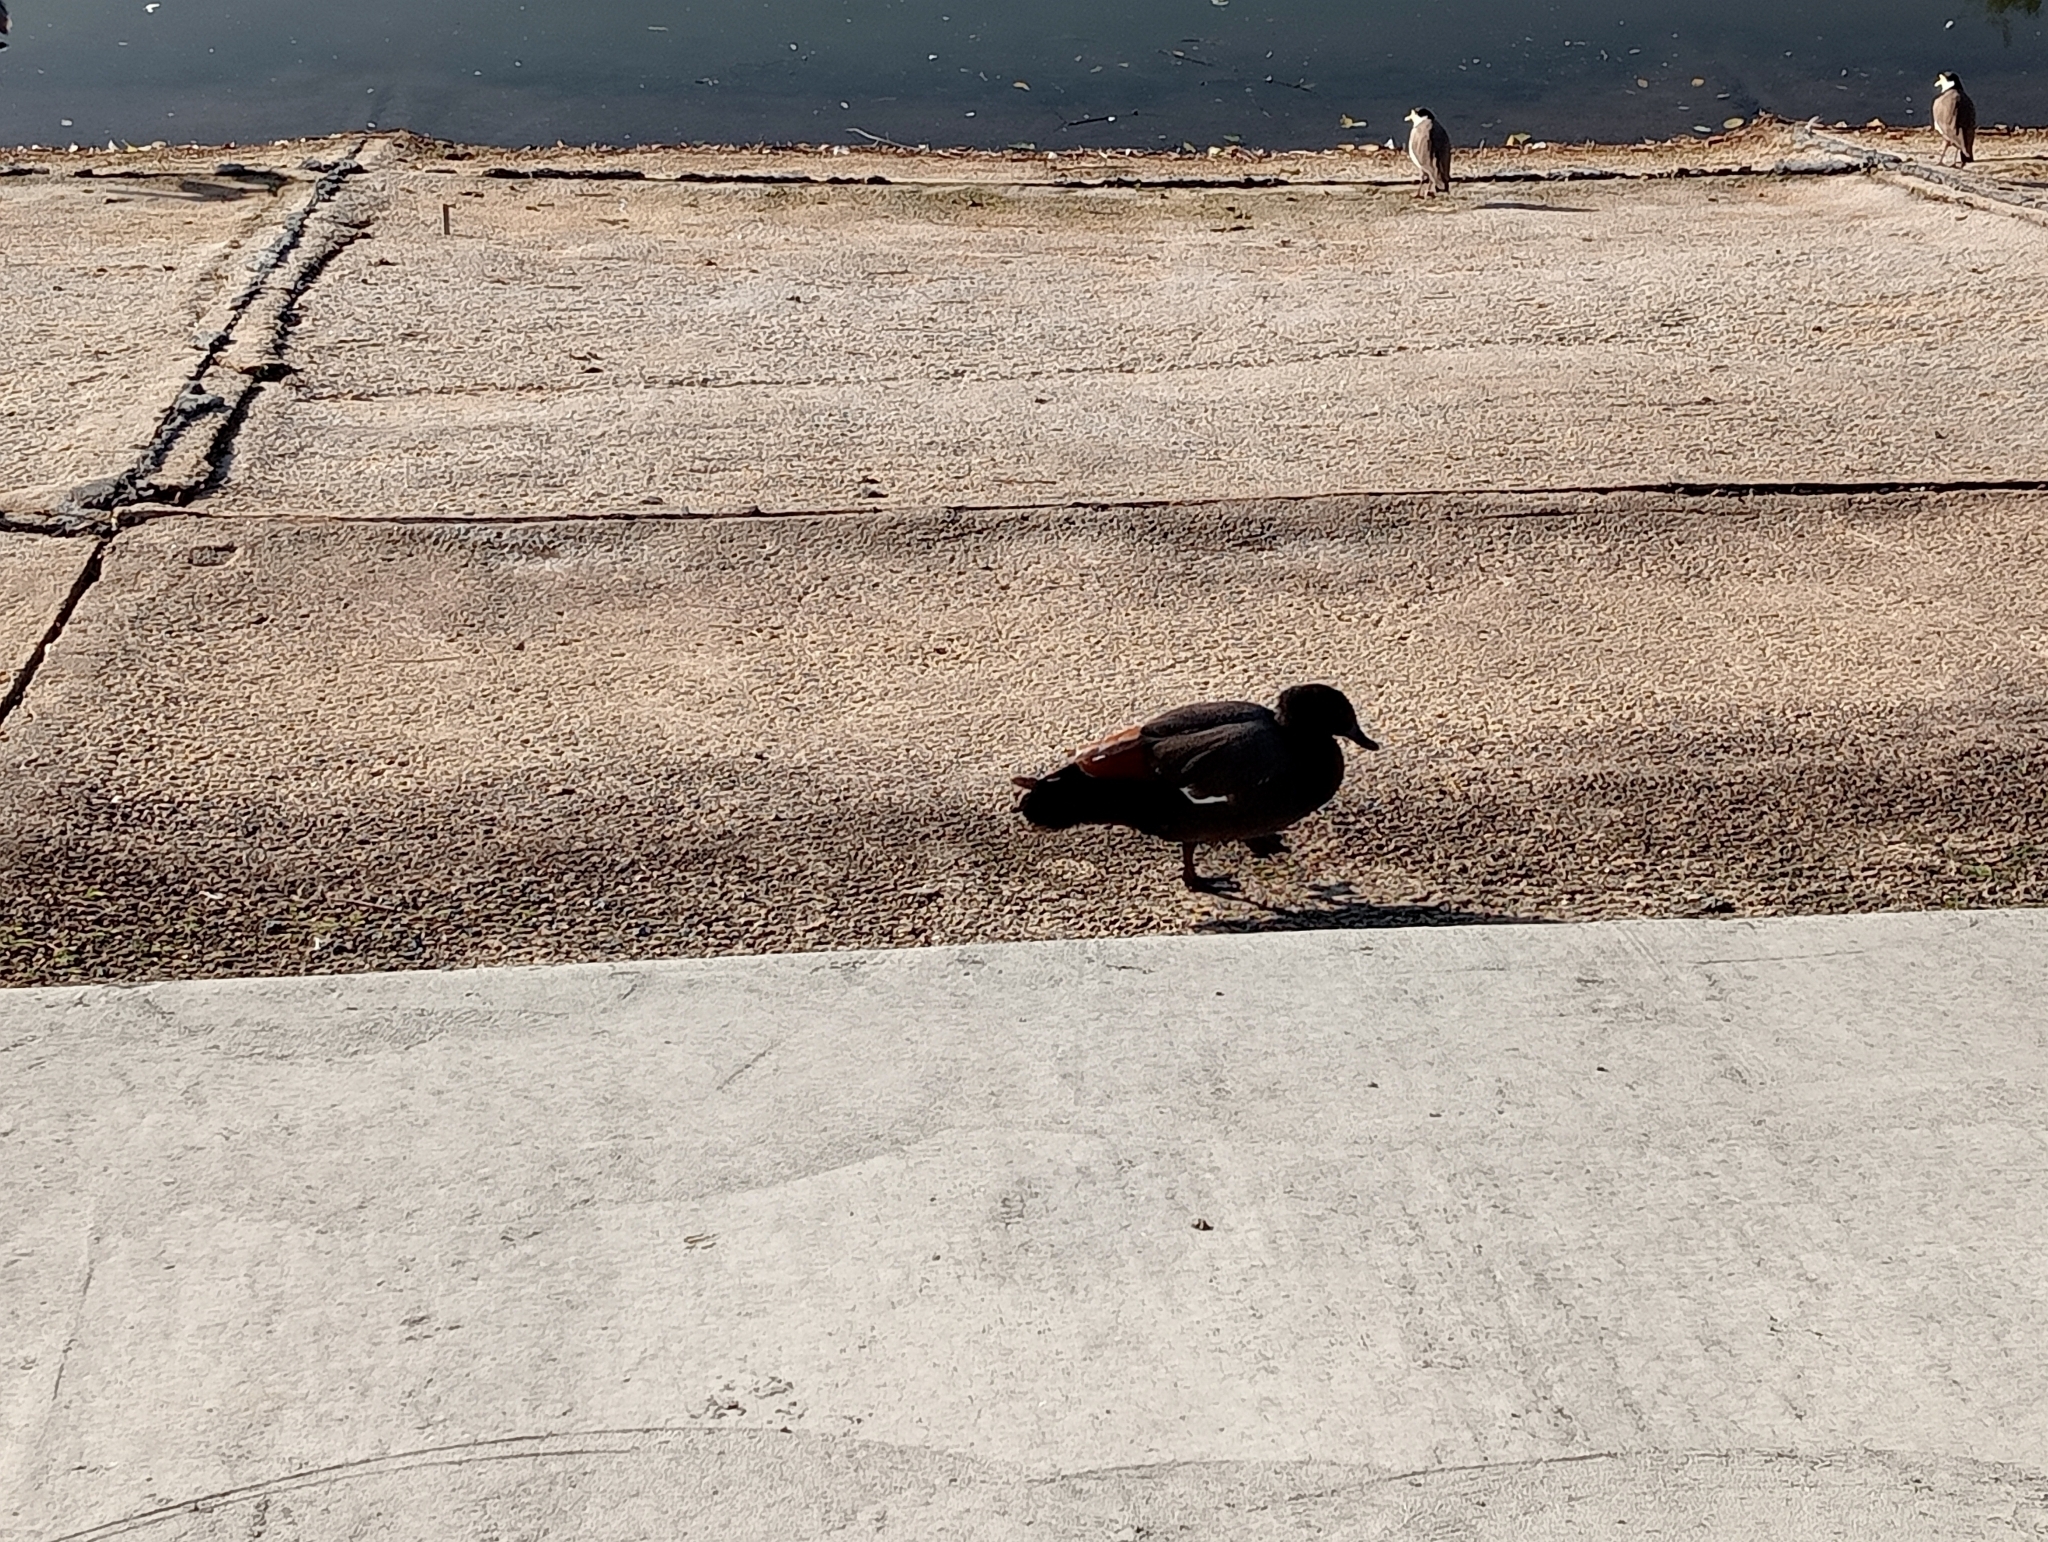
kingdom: Animalia
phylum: Chordata
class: Aves
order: Anseriformes
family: Anatidae
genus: Tadorna
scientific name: Tadorna variegata
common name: Paradise shelduck
